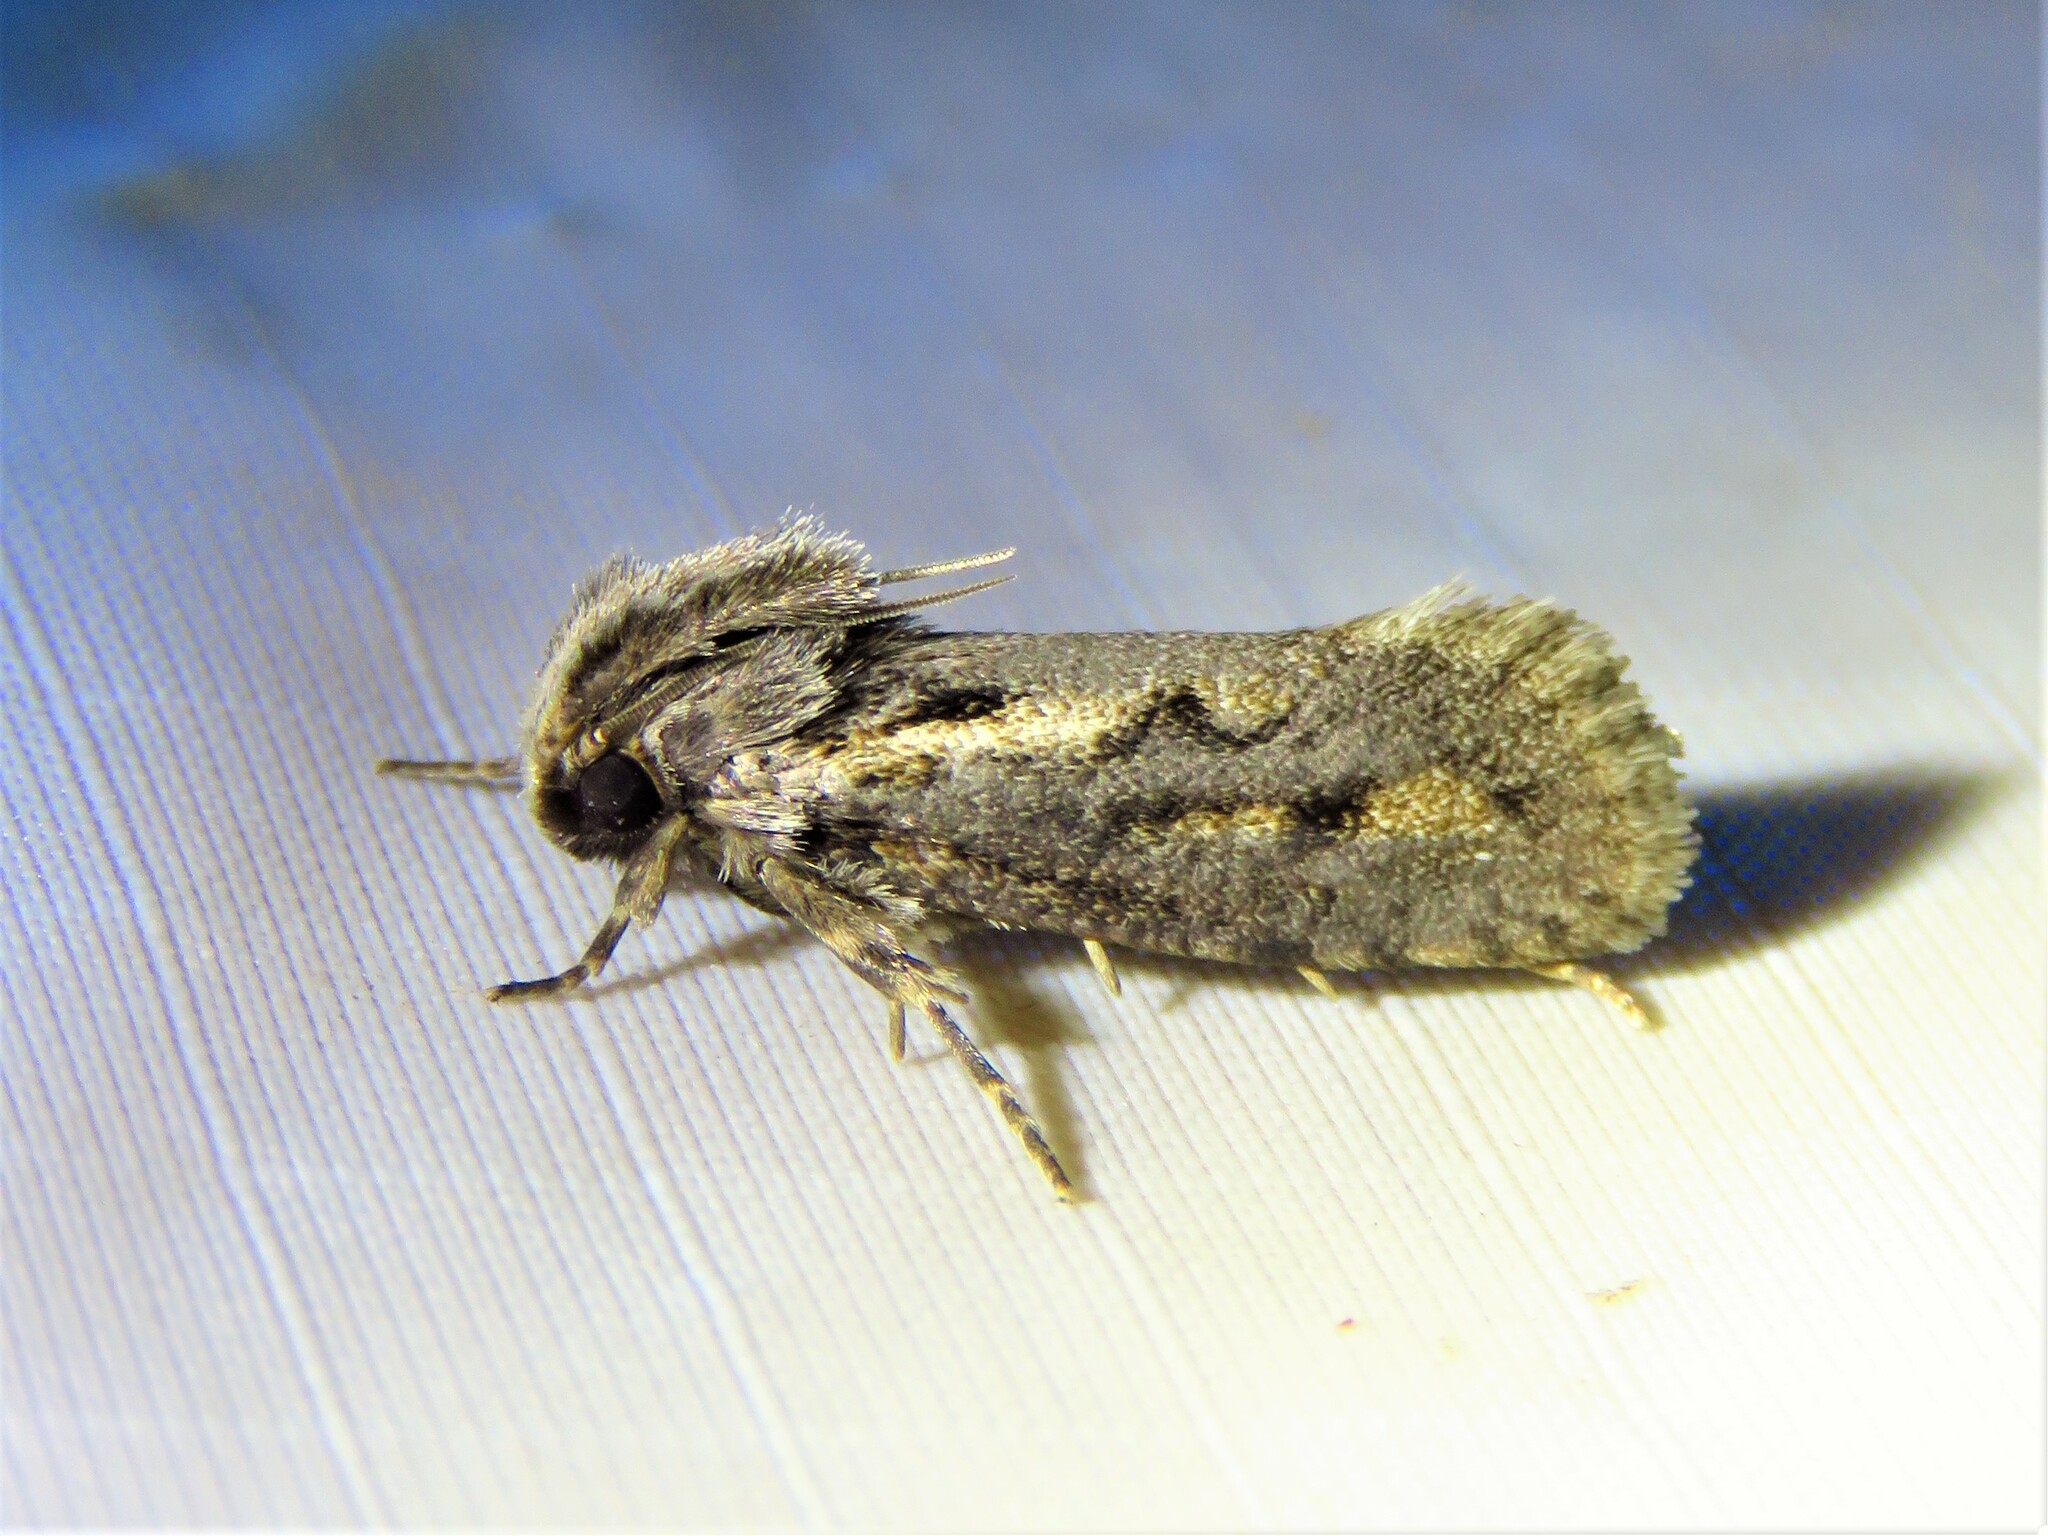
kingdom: Animalia
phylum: Arthropoda
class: Insecta
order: Lepidoptera
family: Tineidae
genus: Acrolophus
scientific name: Acrolophus popeanella
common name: Clemens' grass tubeworm moth
